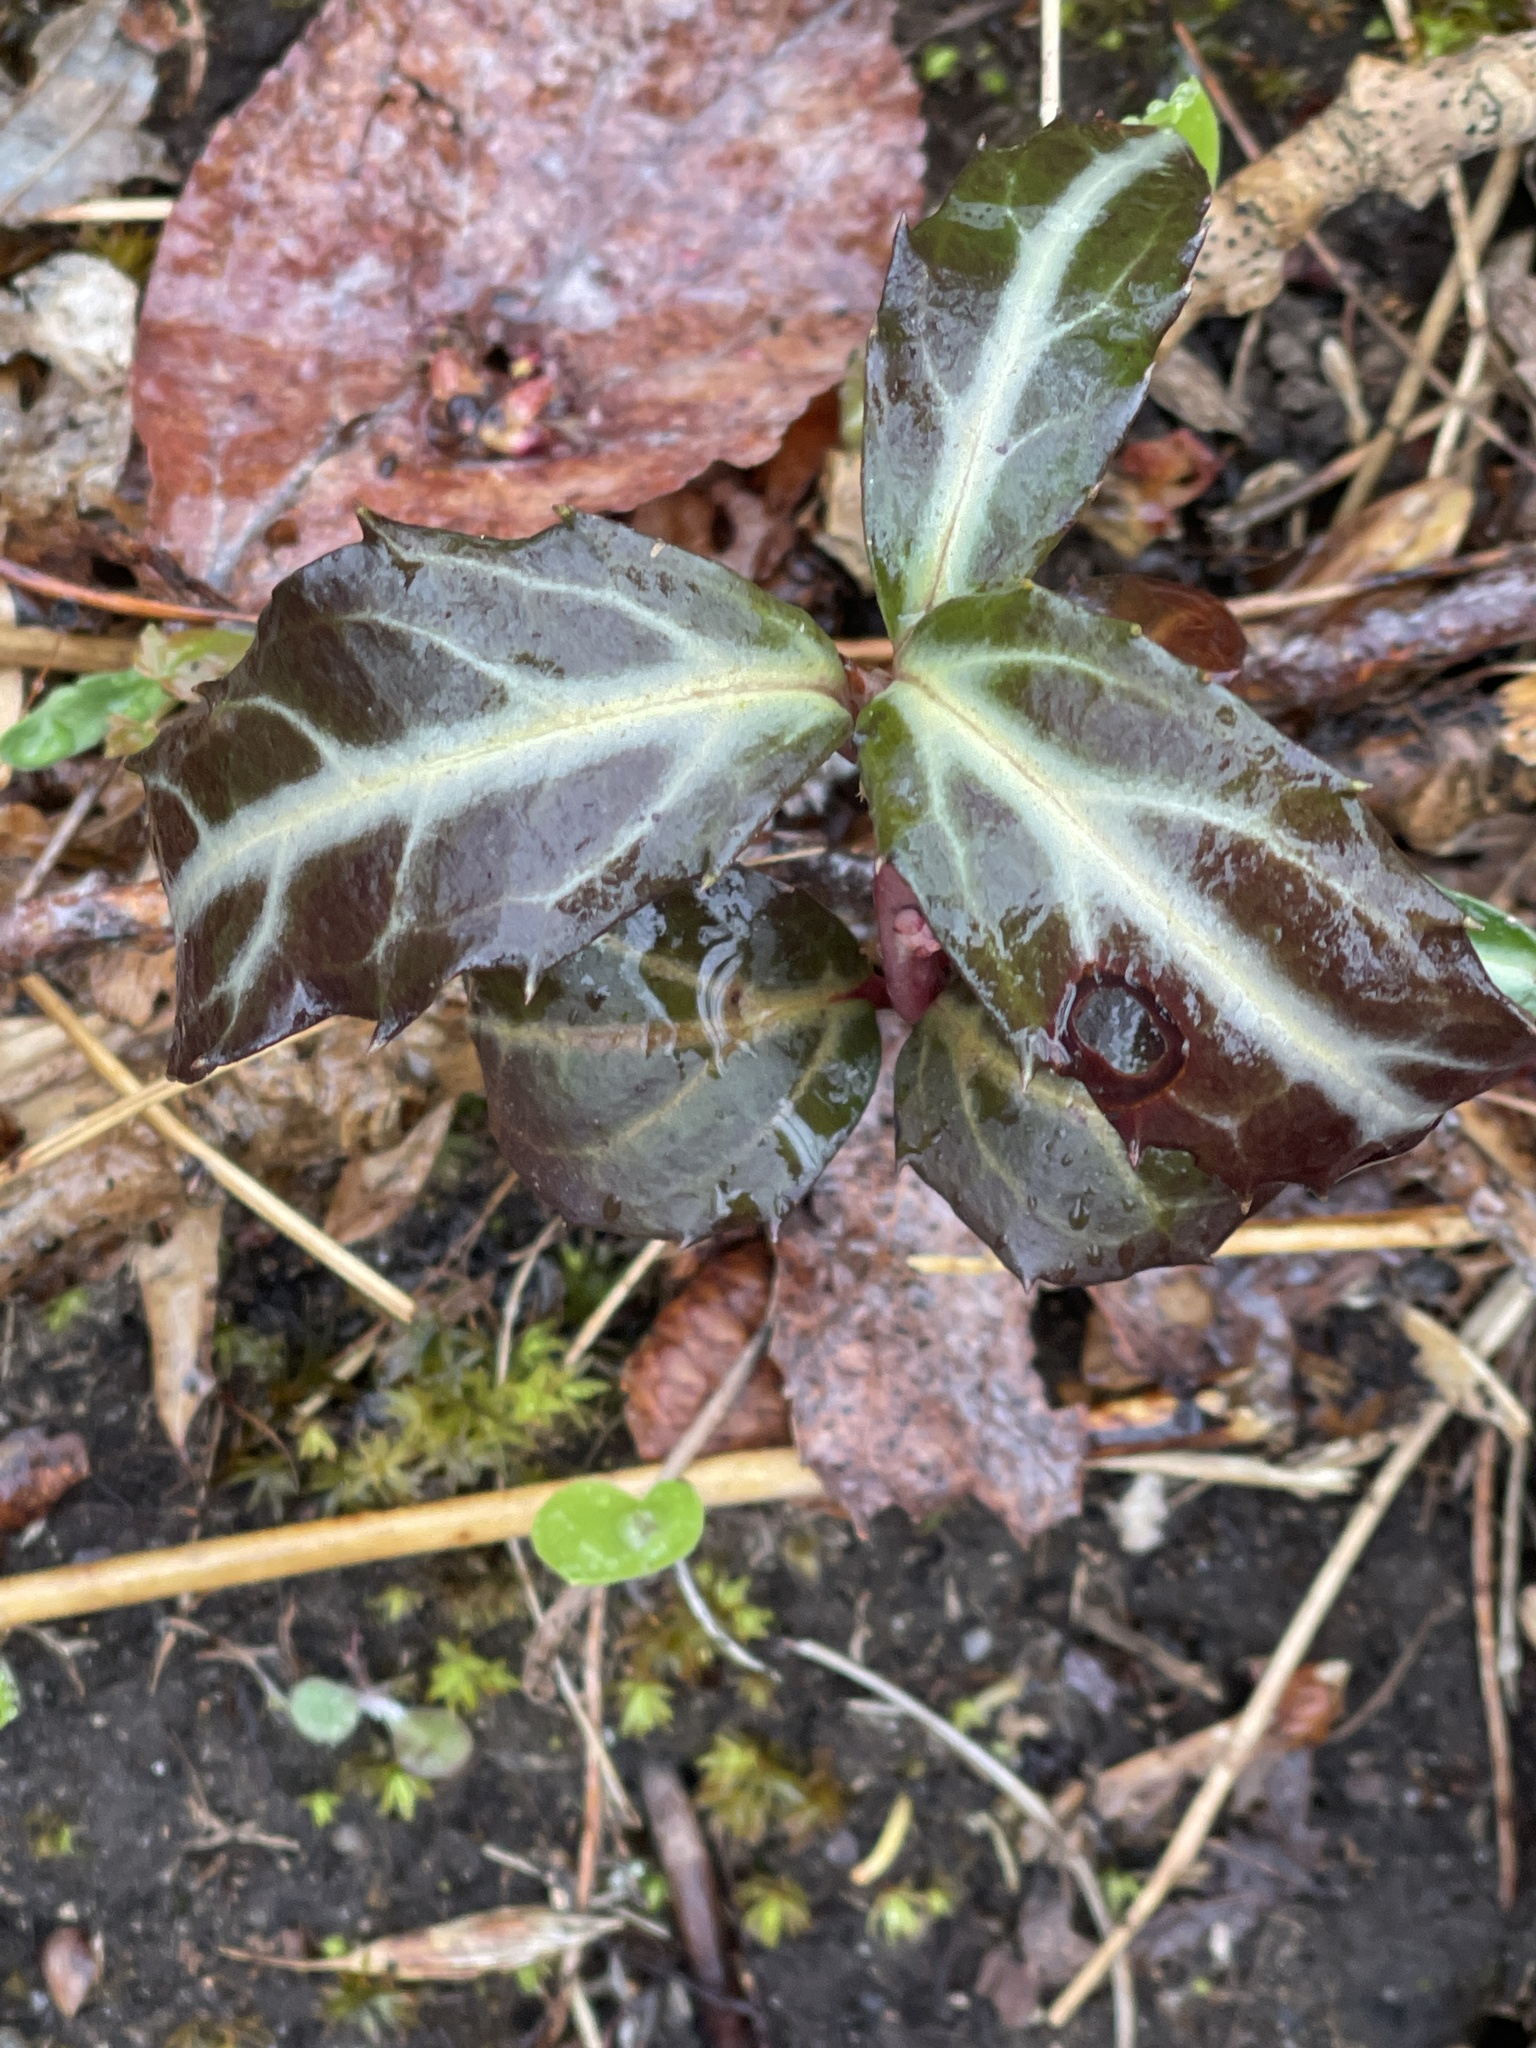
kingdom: Plantae
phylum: Tracheophyta
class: Magnoliopsida
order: Ericales
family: Ericaceae
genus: Chimaphila
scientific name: Chimaphila maculata
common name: Spotted pipsissewa
